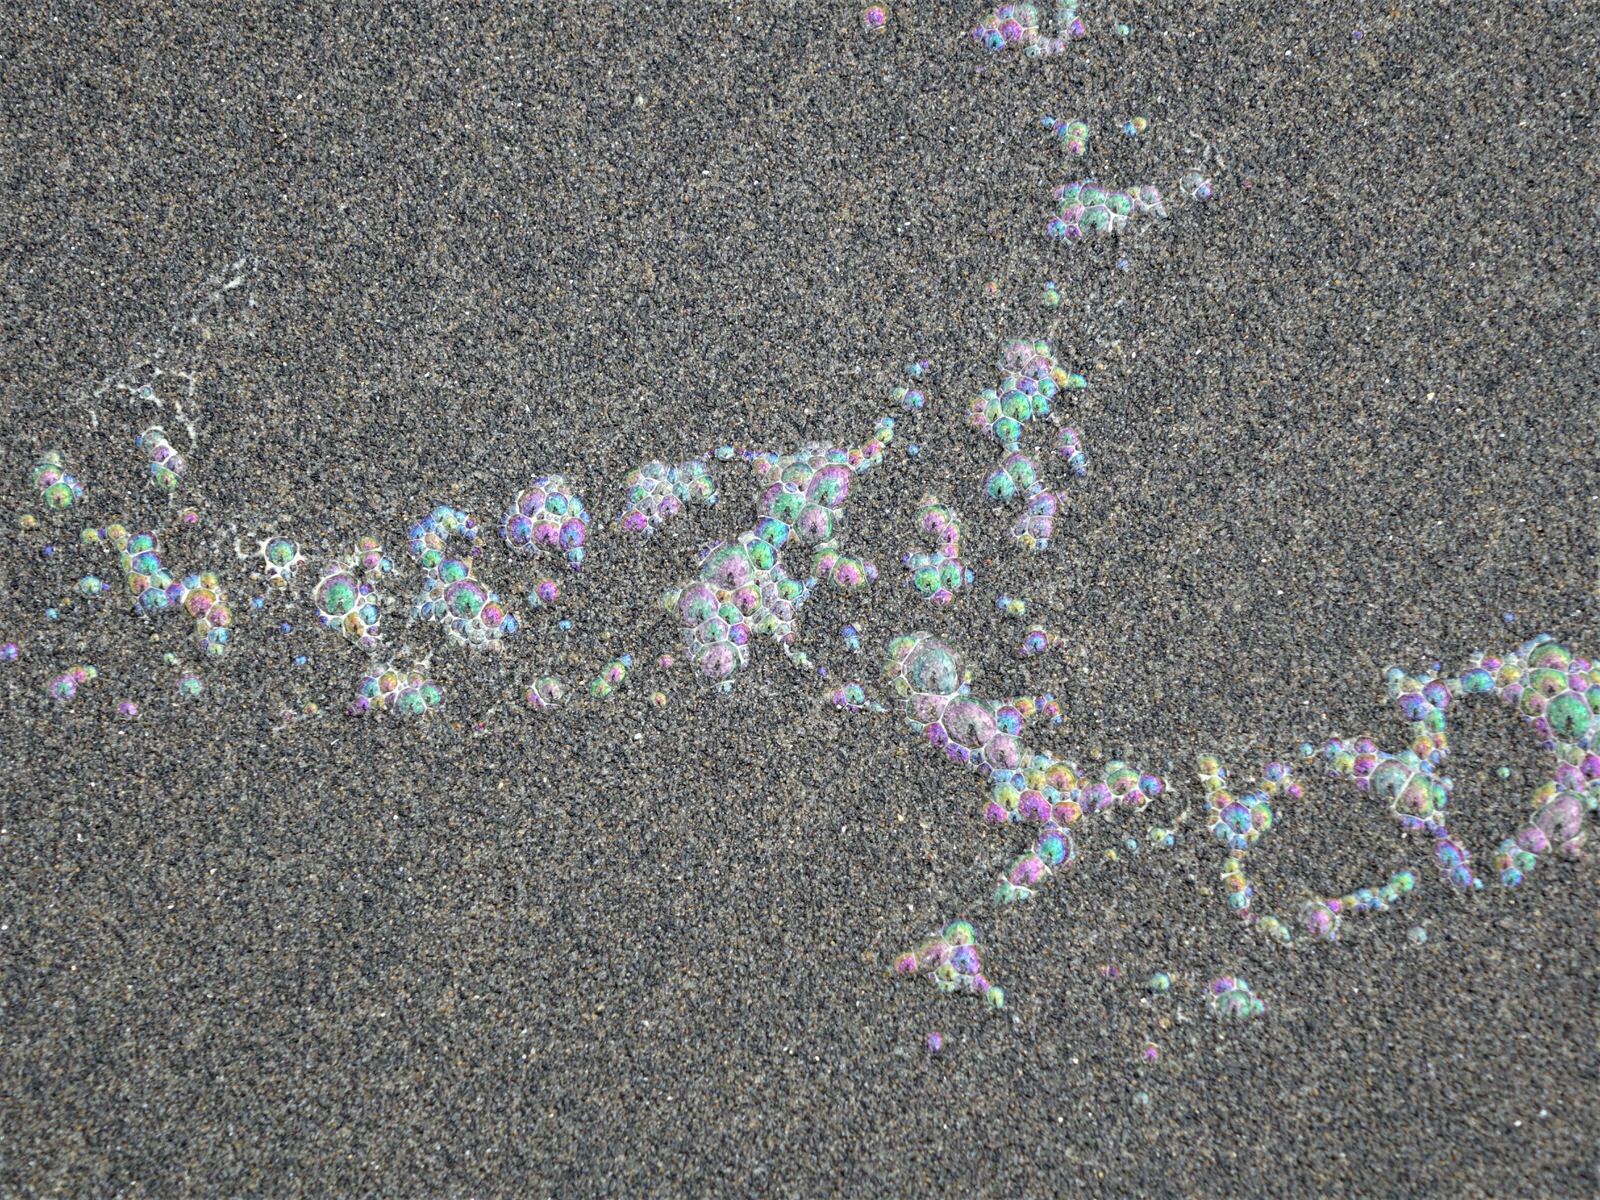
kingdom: Animalia
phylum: Cnidaria
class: Hydrozoa
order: Anthoathecata
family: Porpitidae
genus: Velella
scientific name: Velella velella
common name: By-the-wind-sailor
